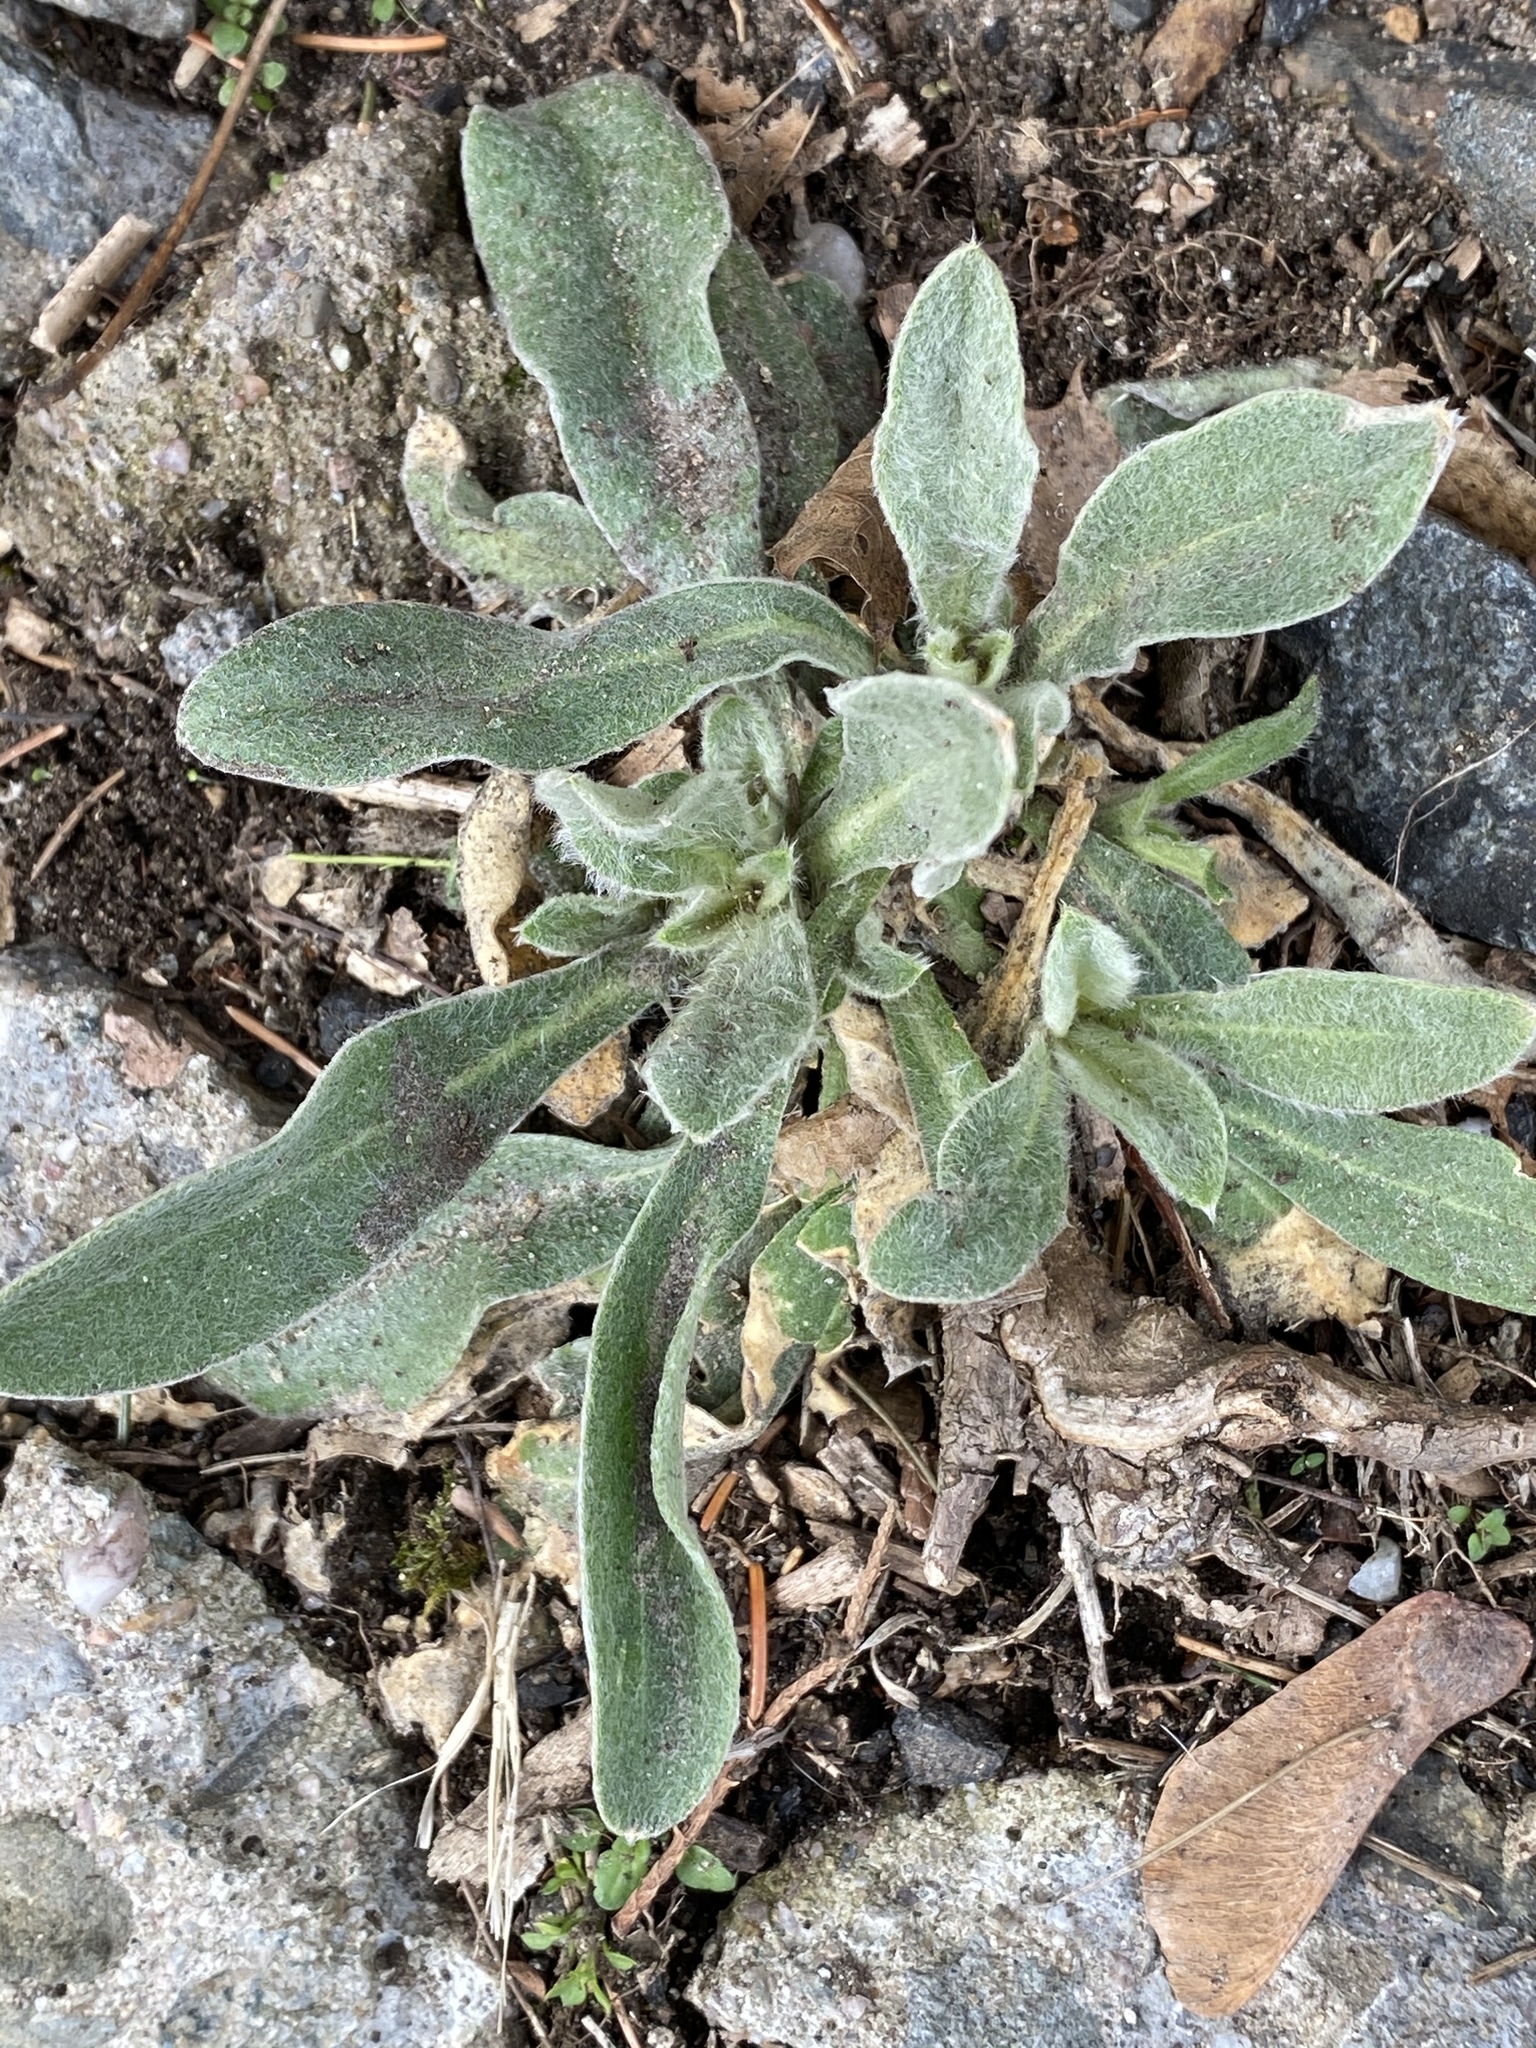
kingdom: Plantae
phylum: Tracheophyta
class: Magnoliopsida
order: Caryophyllales
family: Caryophyllaceae
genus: Silene
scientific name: Silene coronaria
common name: Rose campion
